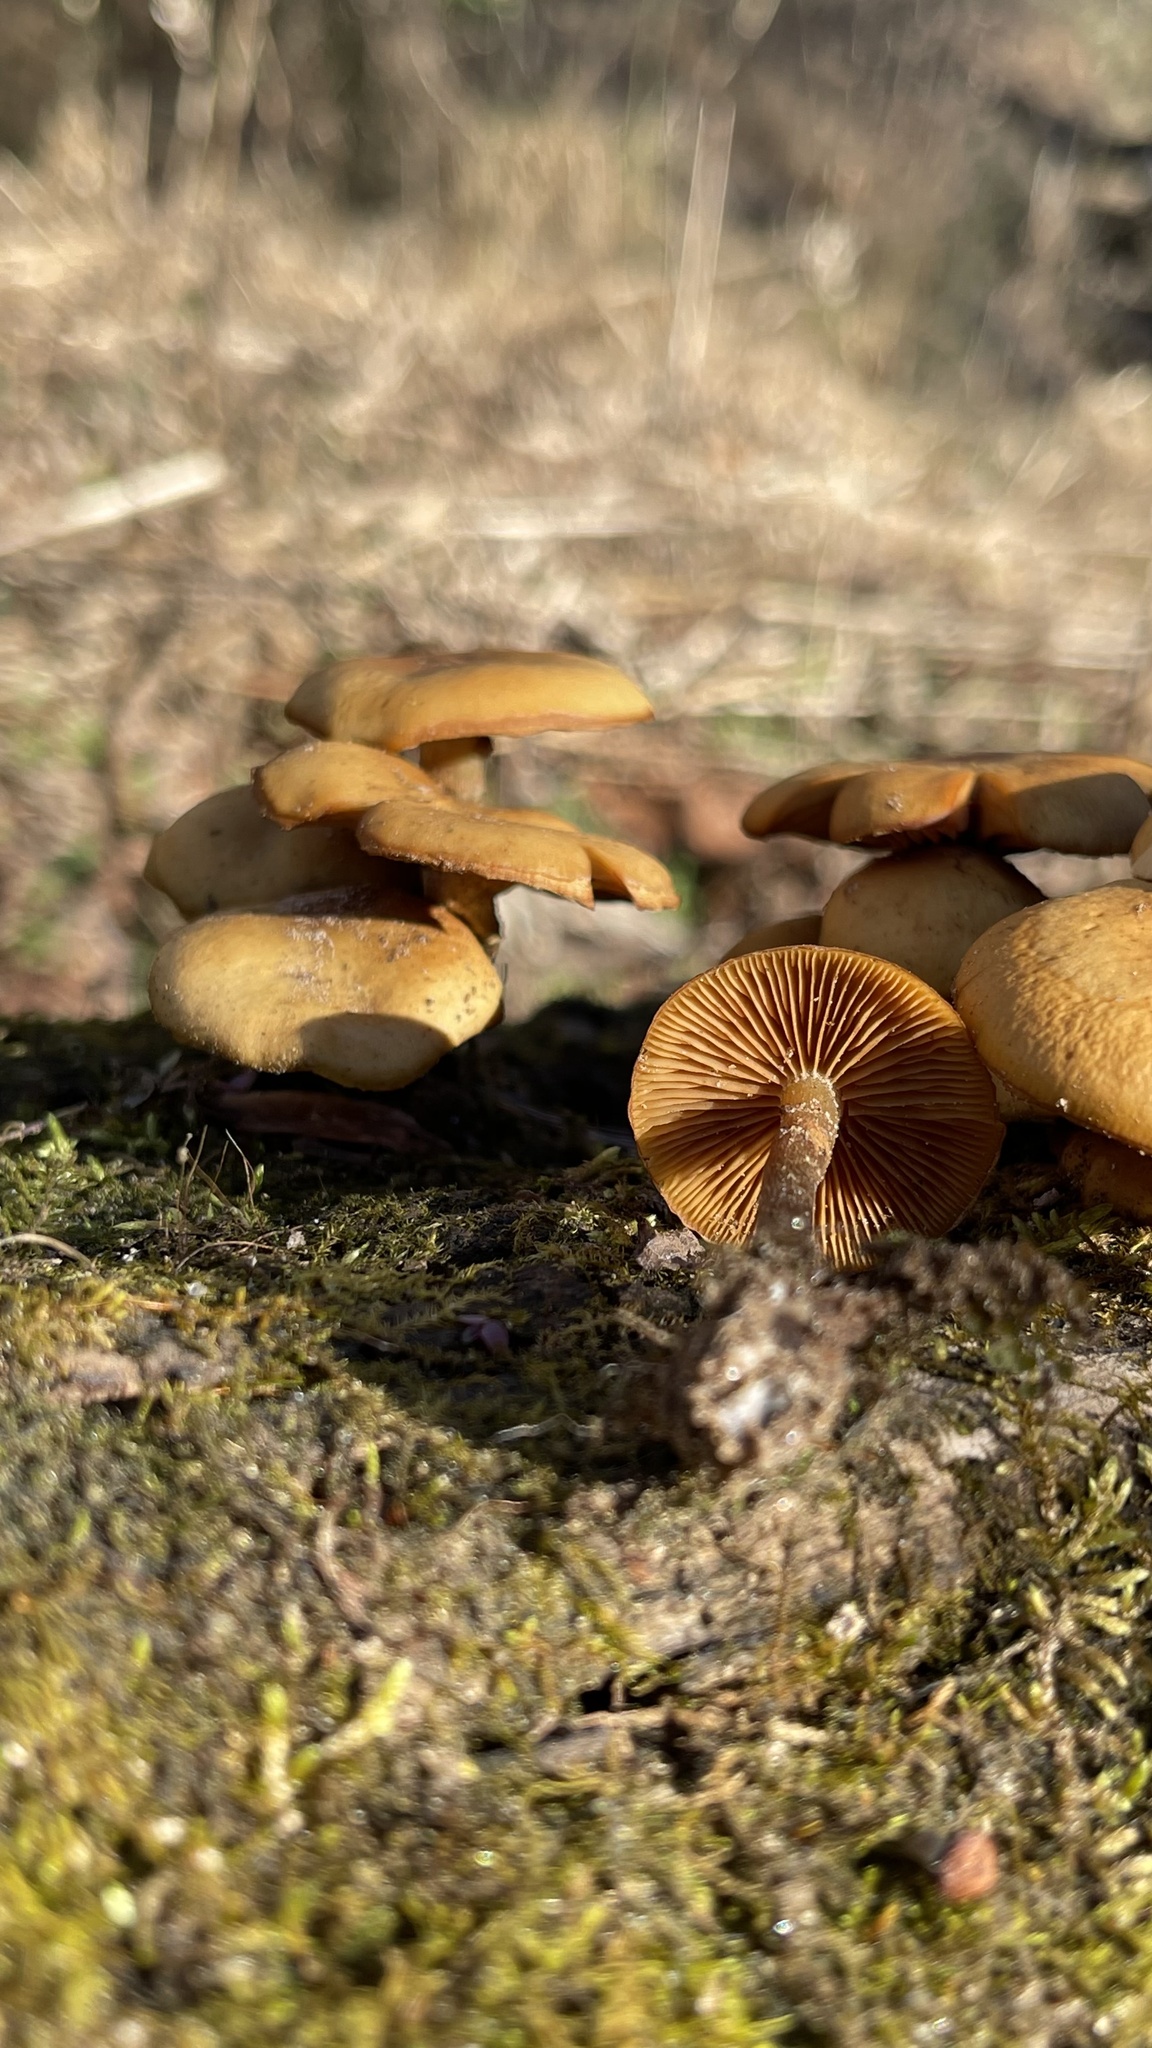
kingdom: Fungi
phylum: Basidiomycota
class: Agaricomycetes
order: Agaricales
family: Hymenogastraceae
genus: Galerina
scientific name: Galerina marginata
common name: Funeral bell
